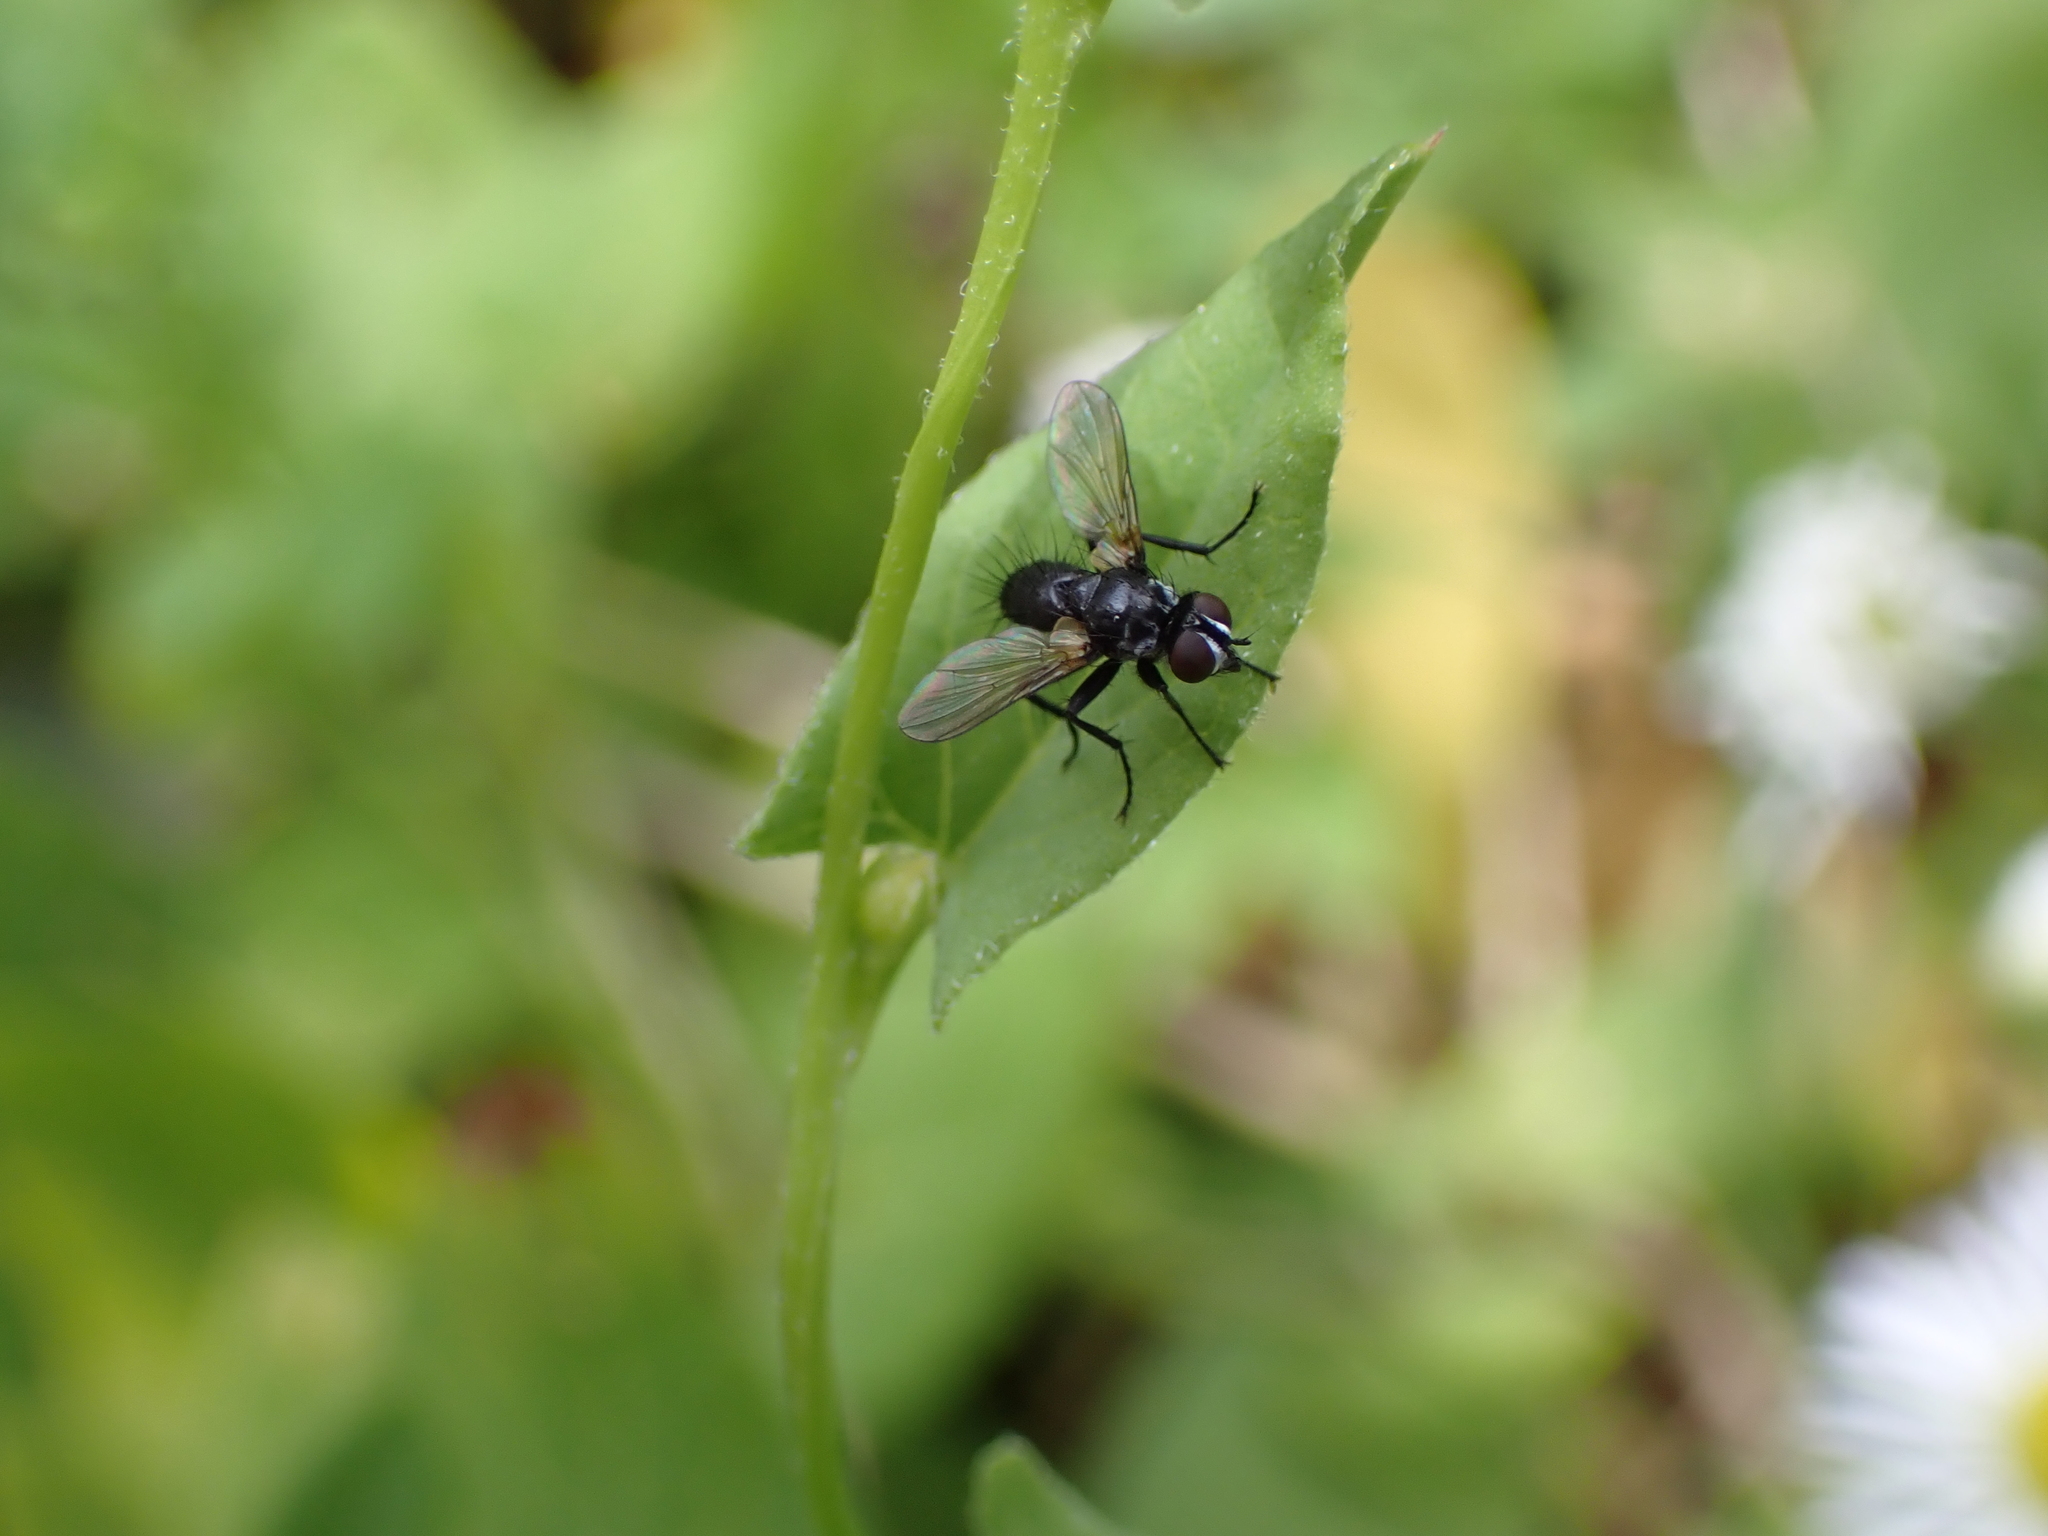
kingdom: Animalia
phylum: Arthropoda
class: Insecta
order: Diptera
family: Tachinidae
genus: Phania
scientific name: Phania funesta
